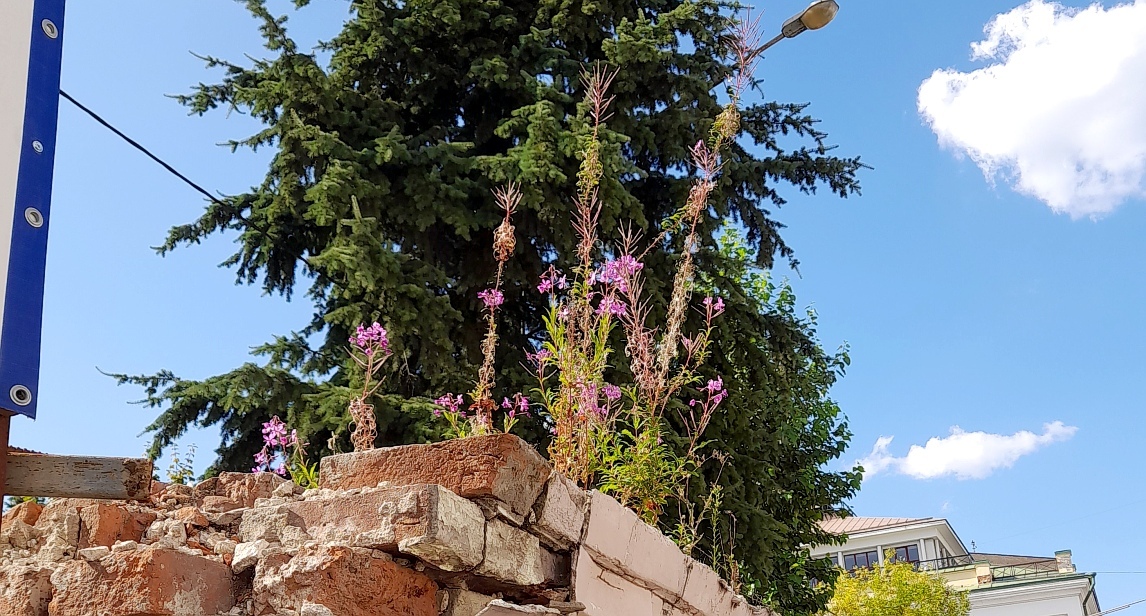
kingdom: Plantae
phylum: Tracheophyta
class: Magnoliopsida
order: Myrtales
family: Onagraceae
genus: Chamaenerion
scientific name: Chamaenerion angustifolium
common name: Fireweed
